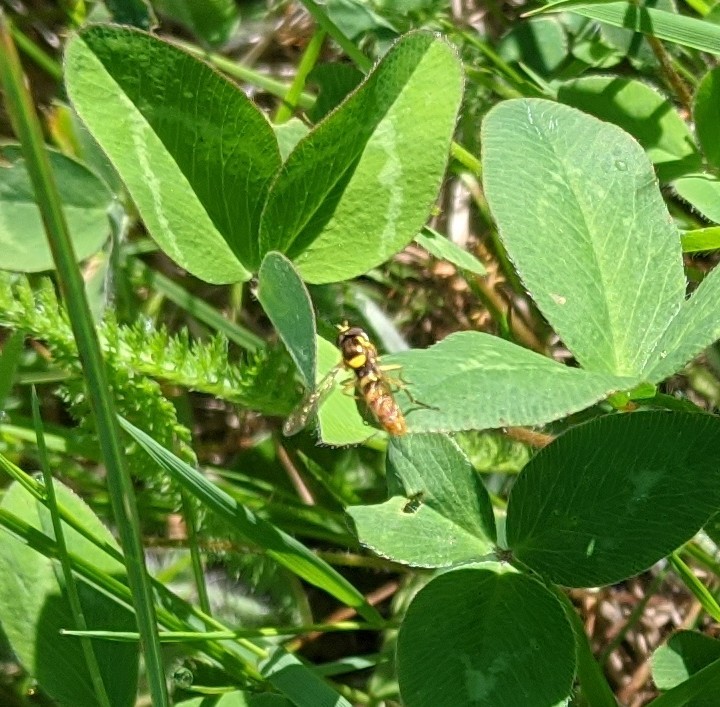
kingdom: Animalia
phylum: Arthropoda
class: Insecta
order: Diptera
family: Syrphidae
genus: Sphaerophoria
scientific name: Sphaerophoria
